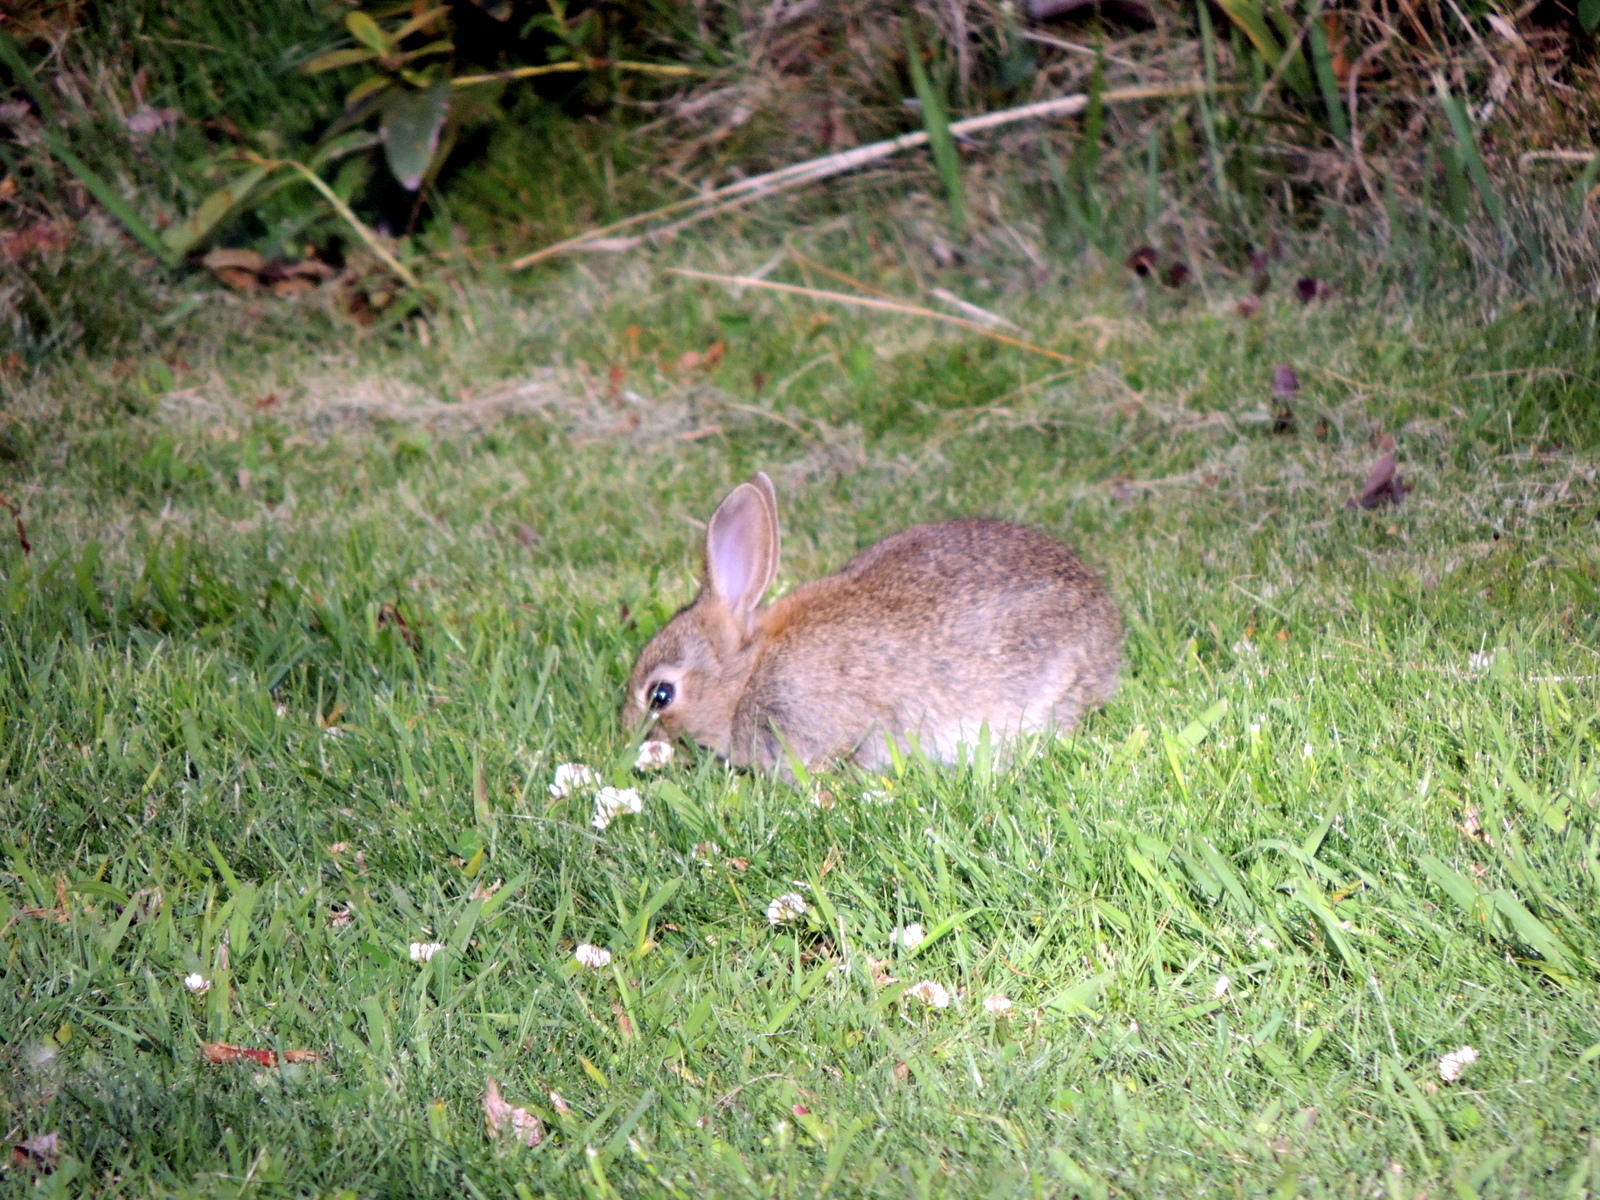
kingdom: Animalia
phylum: Chordata
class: Mammalia
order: Lagomorpha
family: Leporidae
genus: Oryctolagus
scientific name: Oryctolagus cuniculus
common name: European rabbit
